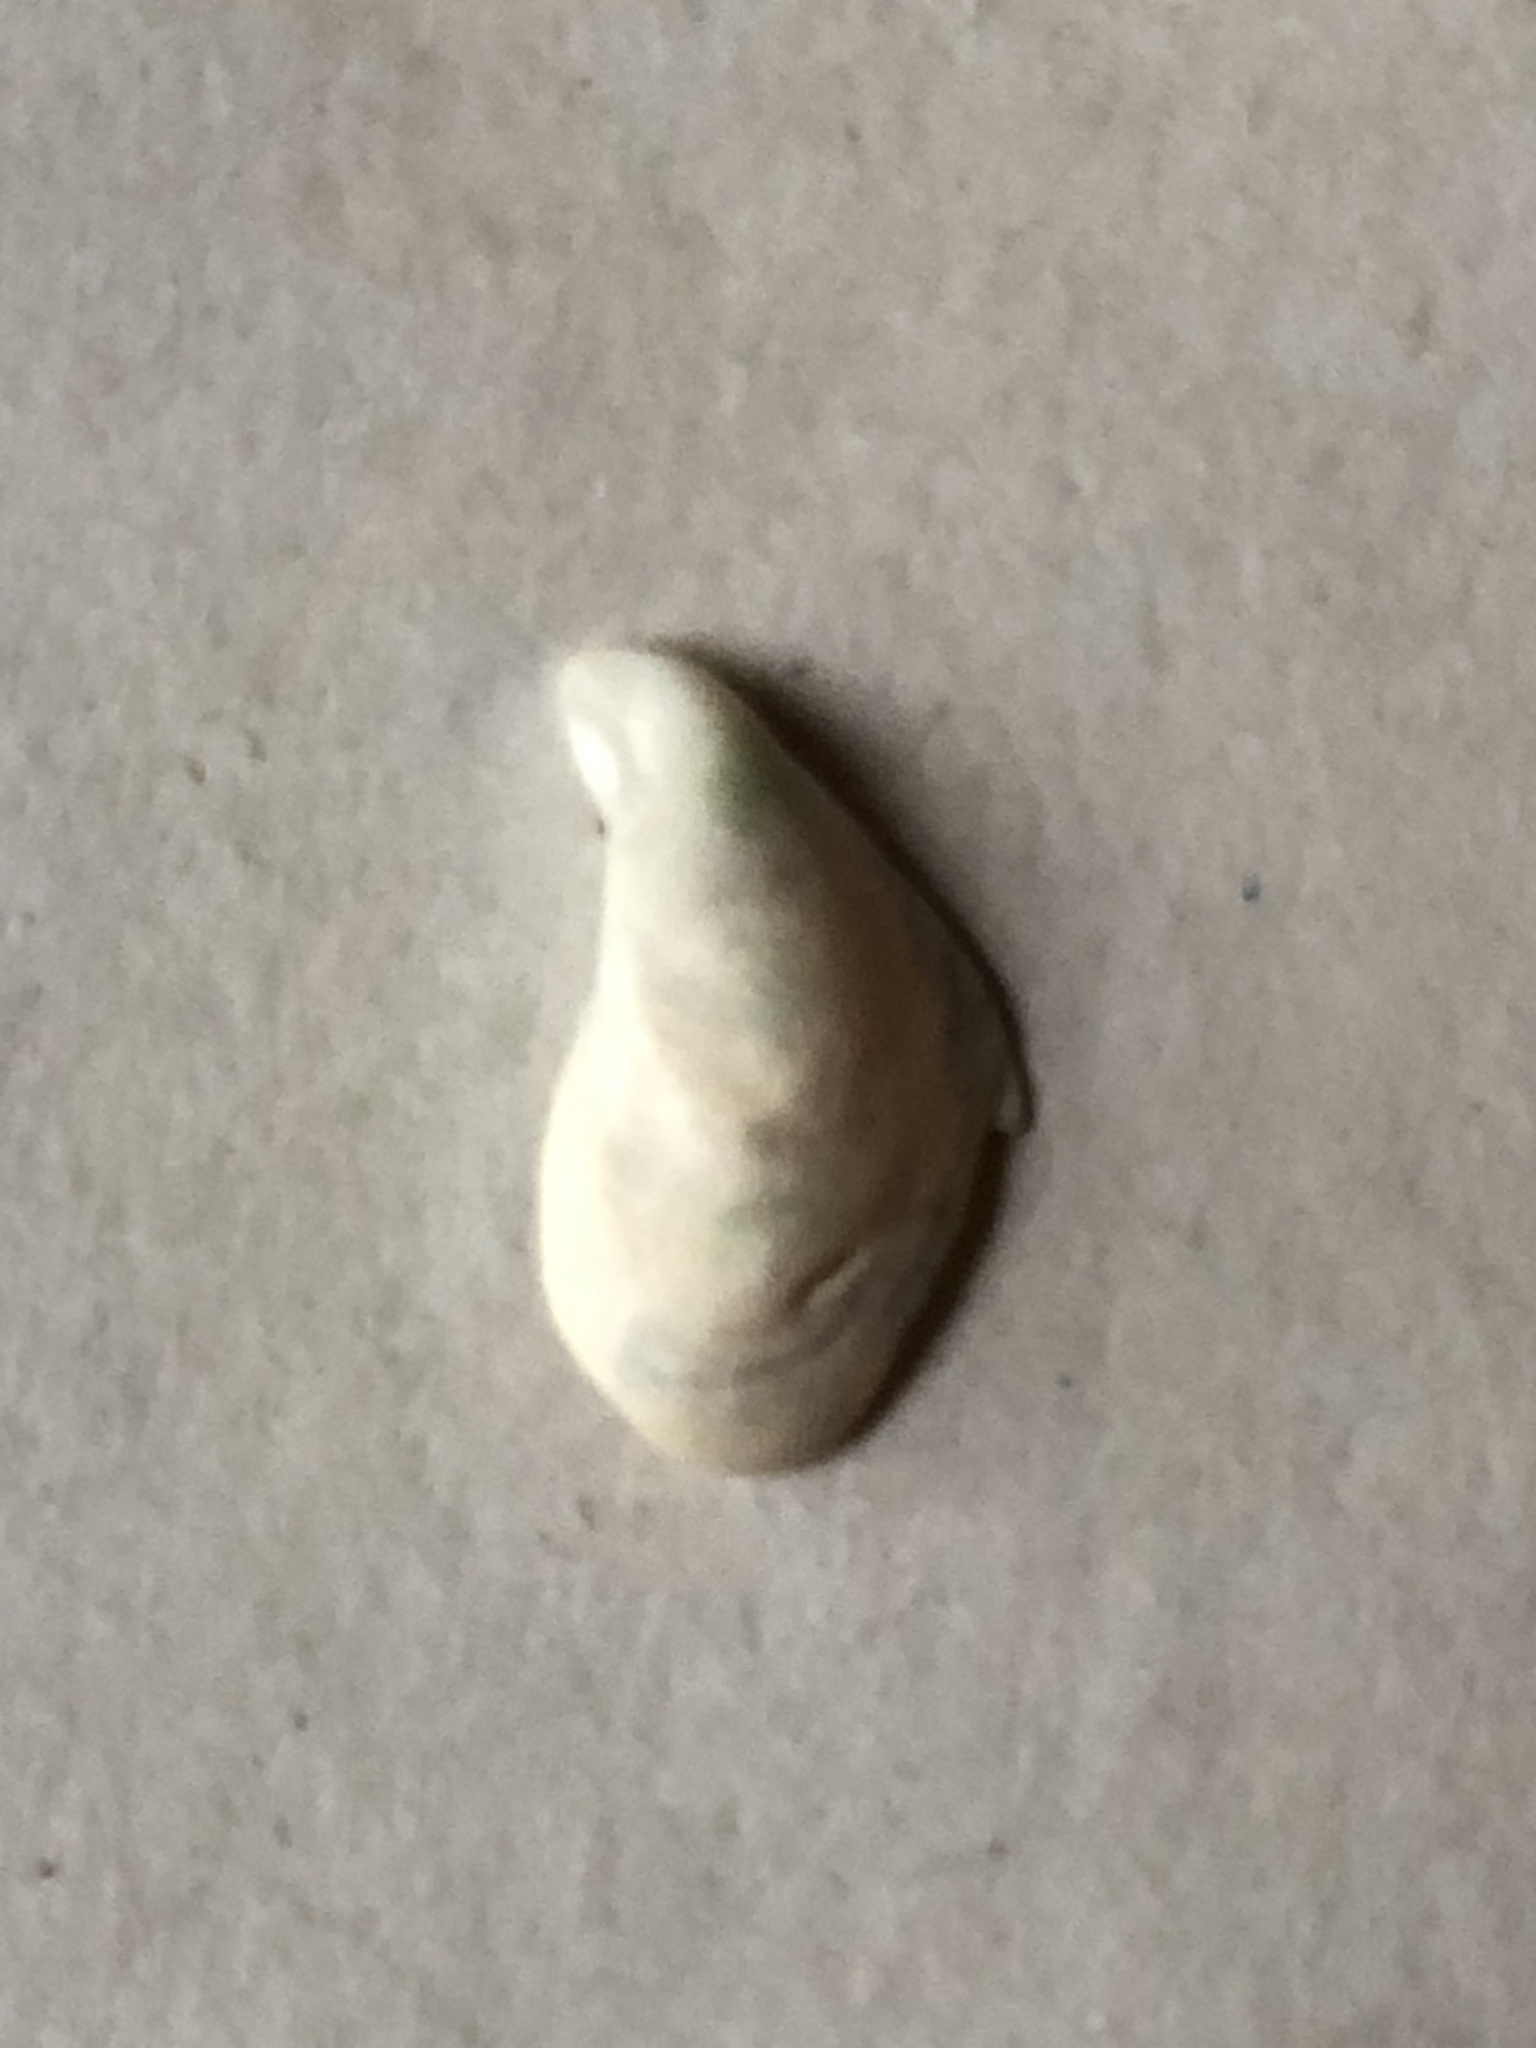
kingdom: Animalia
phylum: Mollusca
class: Bivalvia
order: Myida
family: Dreissenidae
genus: Dreissena
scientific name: Dreissena bugensis
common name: Quagga mussel
